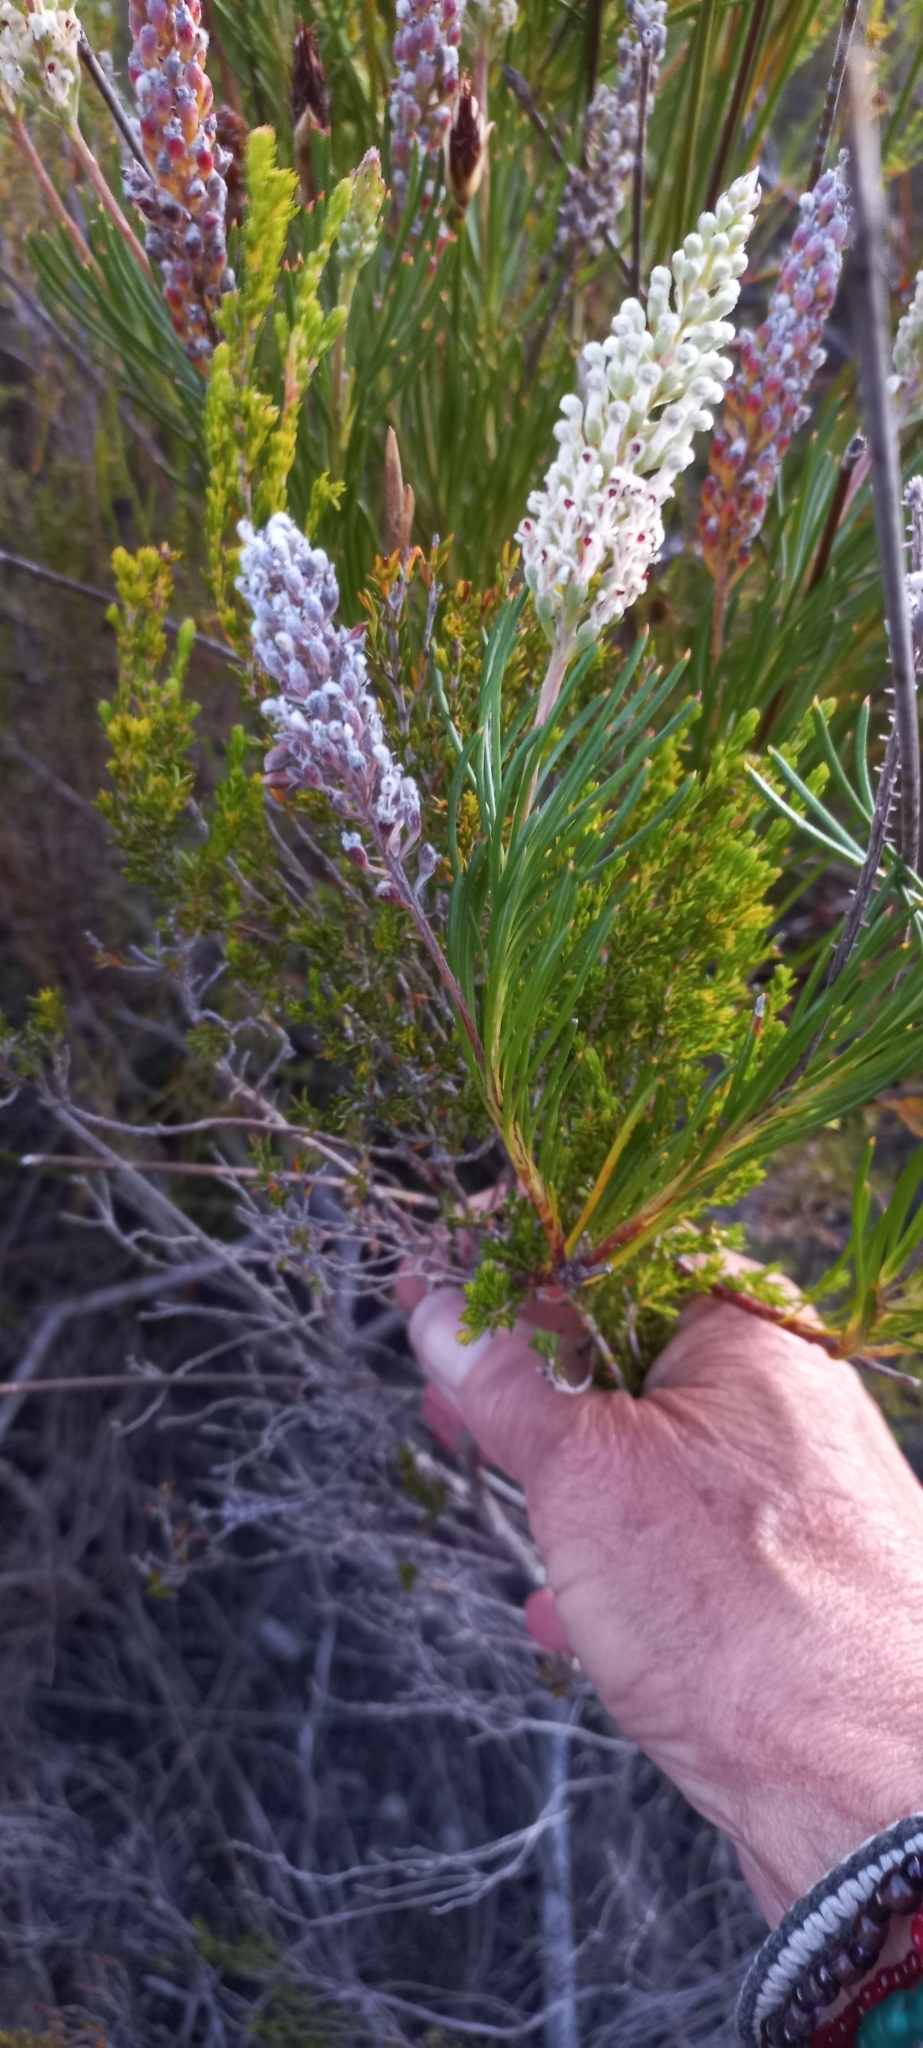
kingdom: Plantae
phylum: Tracheophyta
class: Magnoliopsida
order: Proteales
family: Proteaceae
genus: Spatalla
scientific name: Spatalla curvifolia
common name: White-stalked spoon
